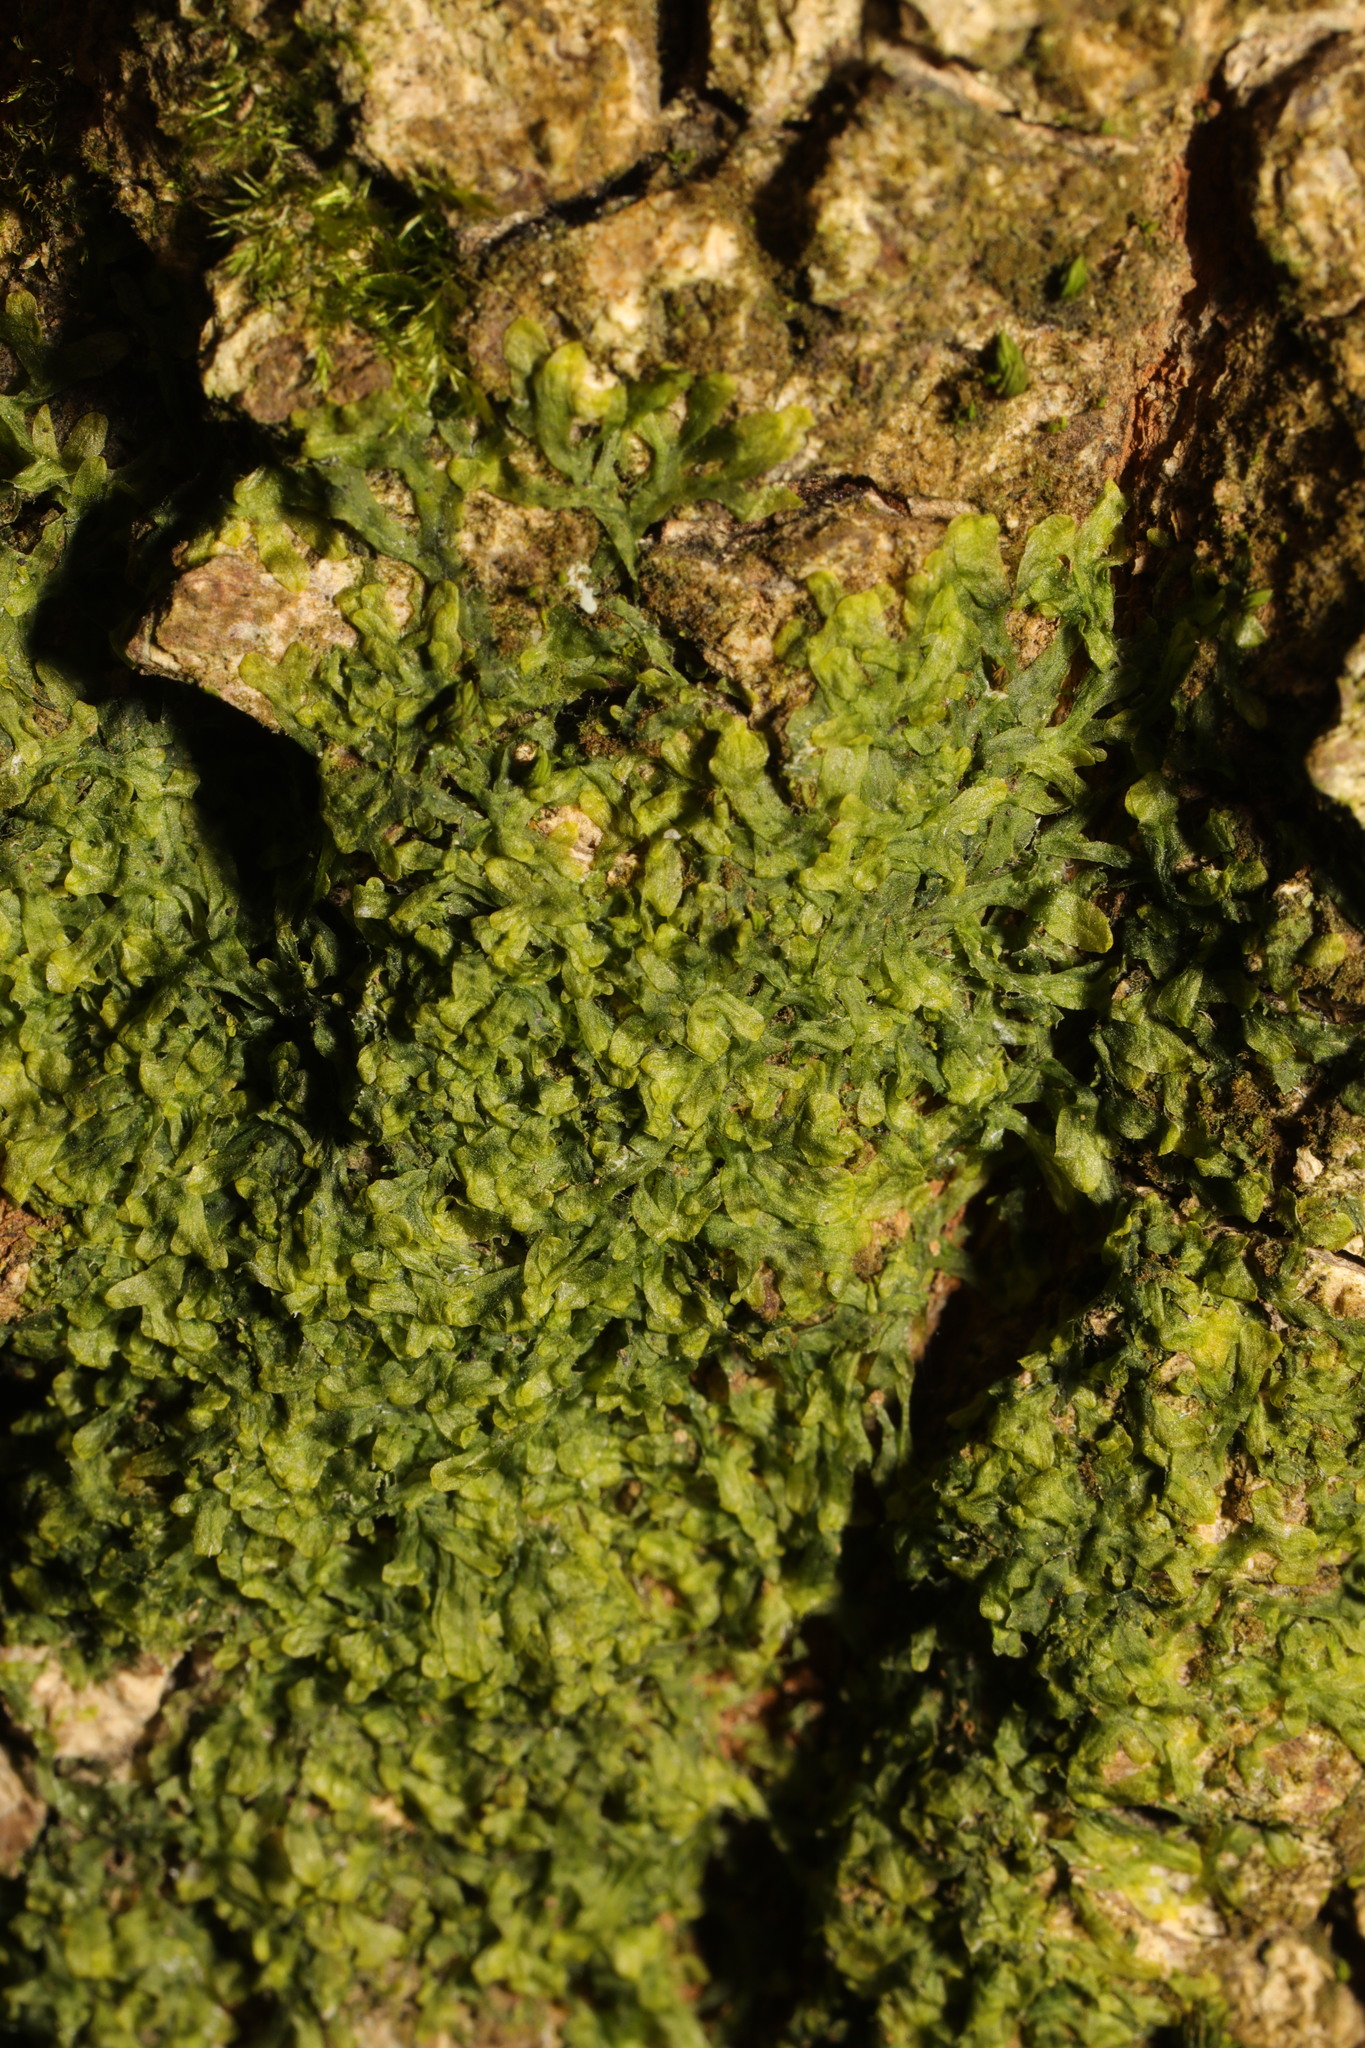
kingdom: Plantae
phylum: Marchantiophyta
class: Jungermanniopsida
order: Metzgeriales
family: Metzgeriaceae
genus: Metzgeria
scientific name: Metzgeria furcata
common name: Forked veilwort
